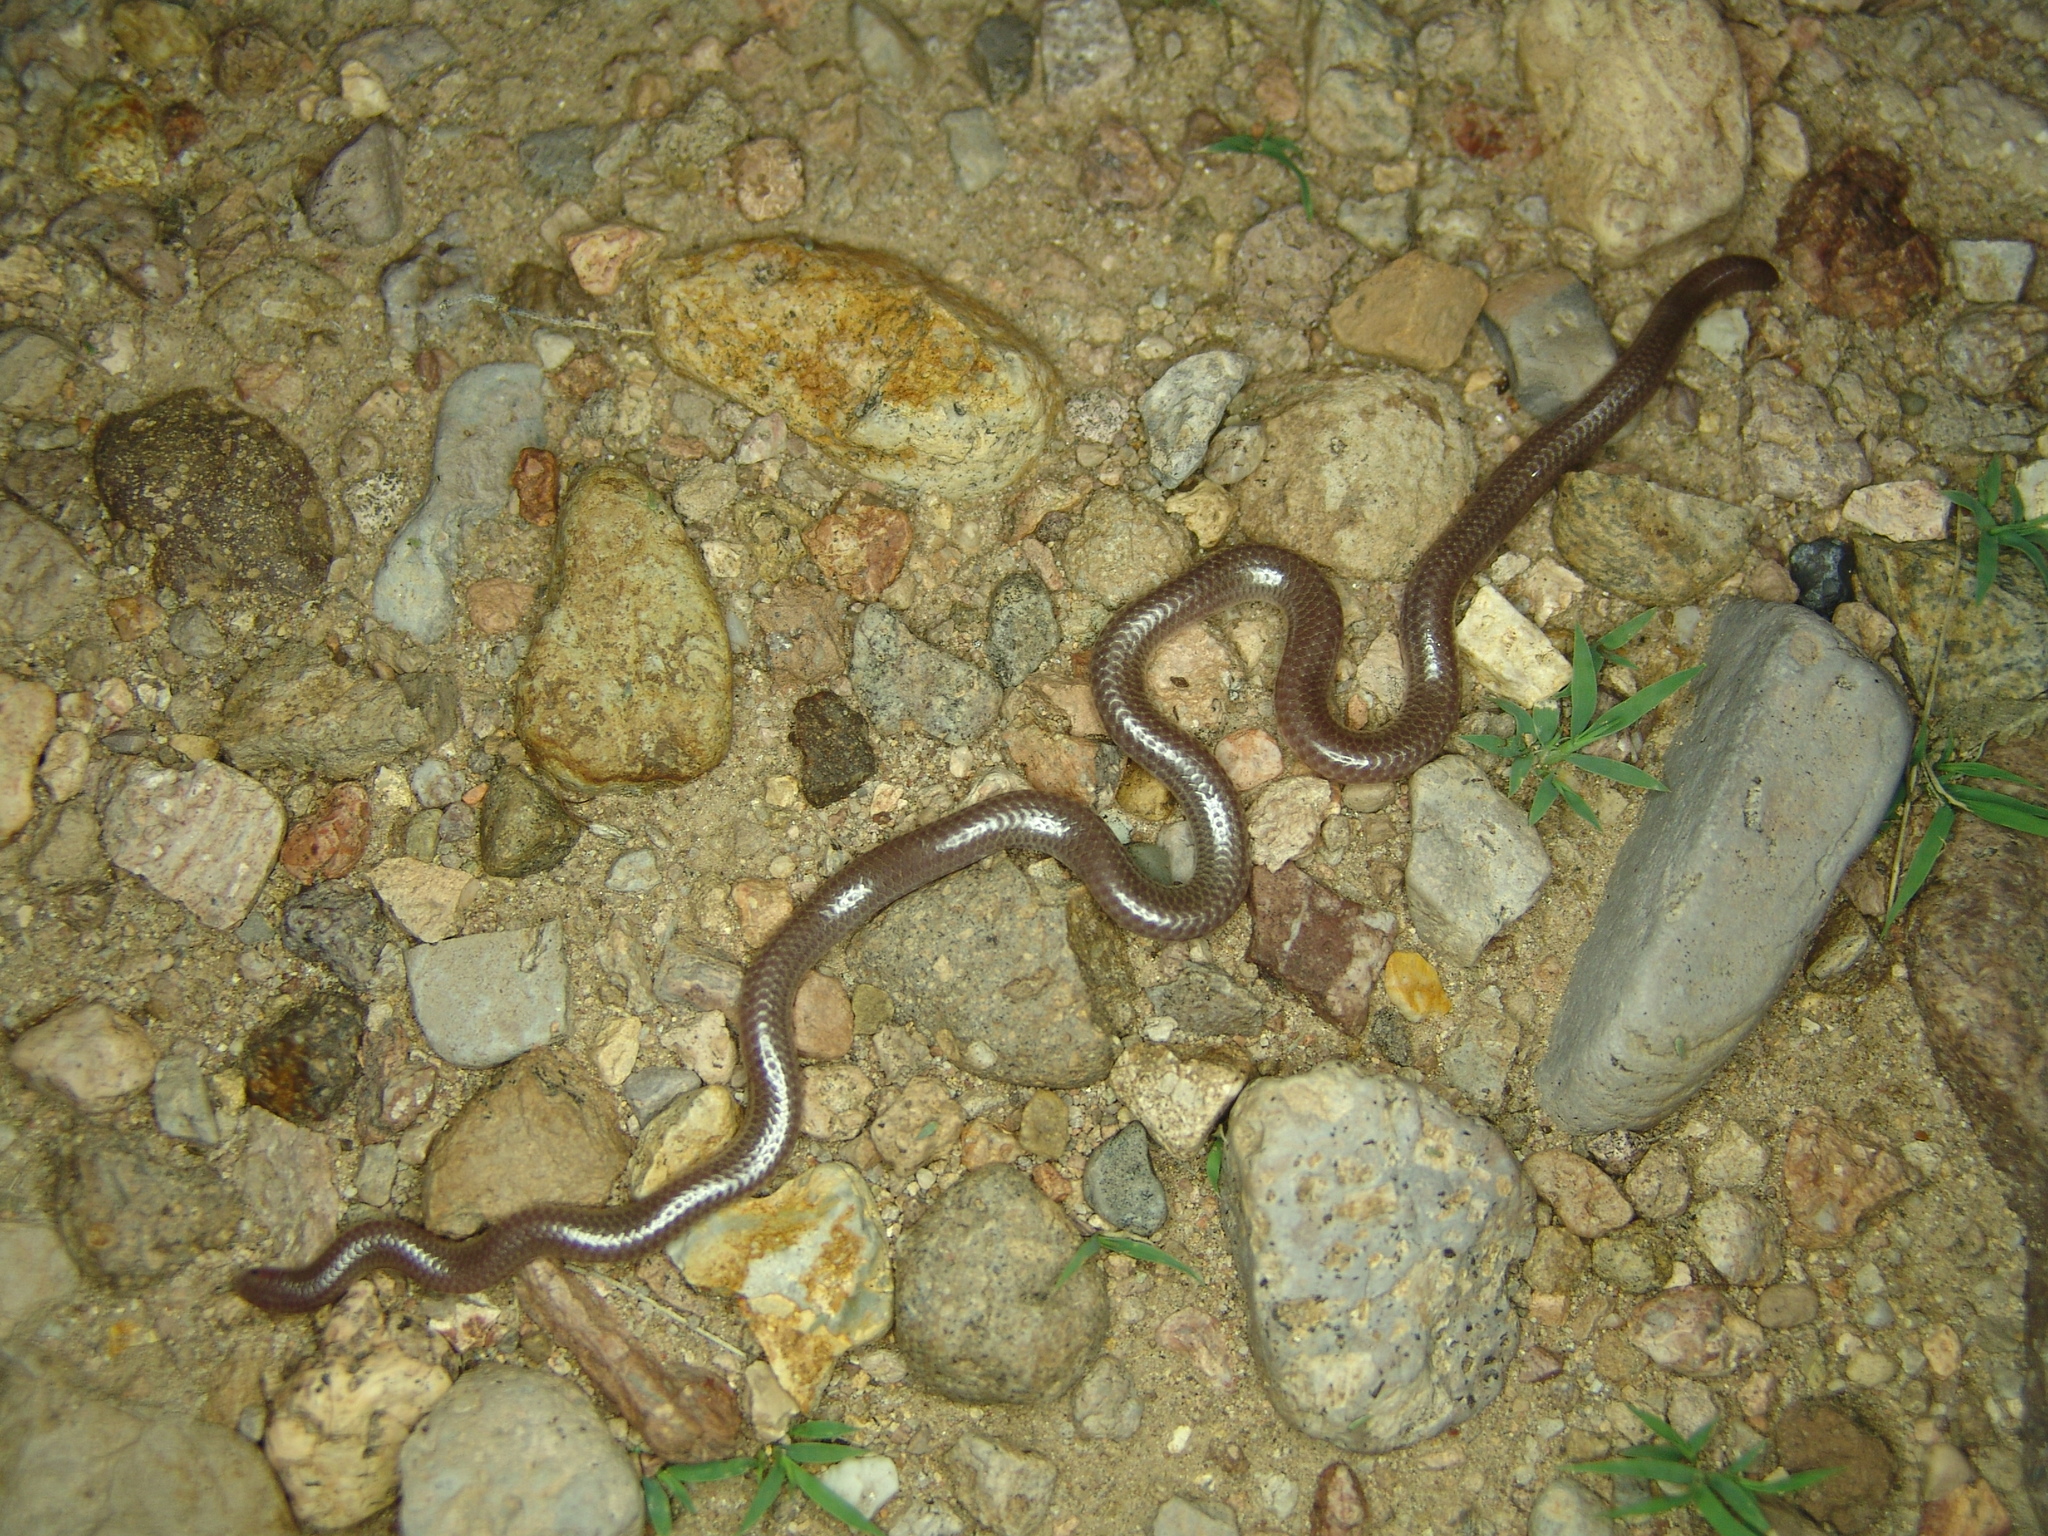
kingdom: Animalia
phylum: Chordata
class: Squamata
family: Leptotyphlopidae
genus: Rena
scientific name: Rena
